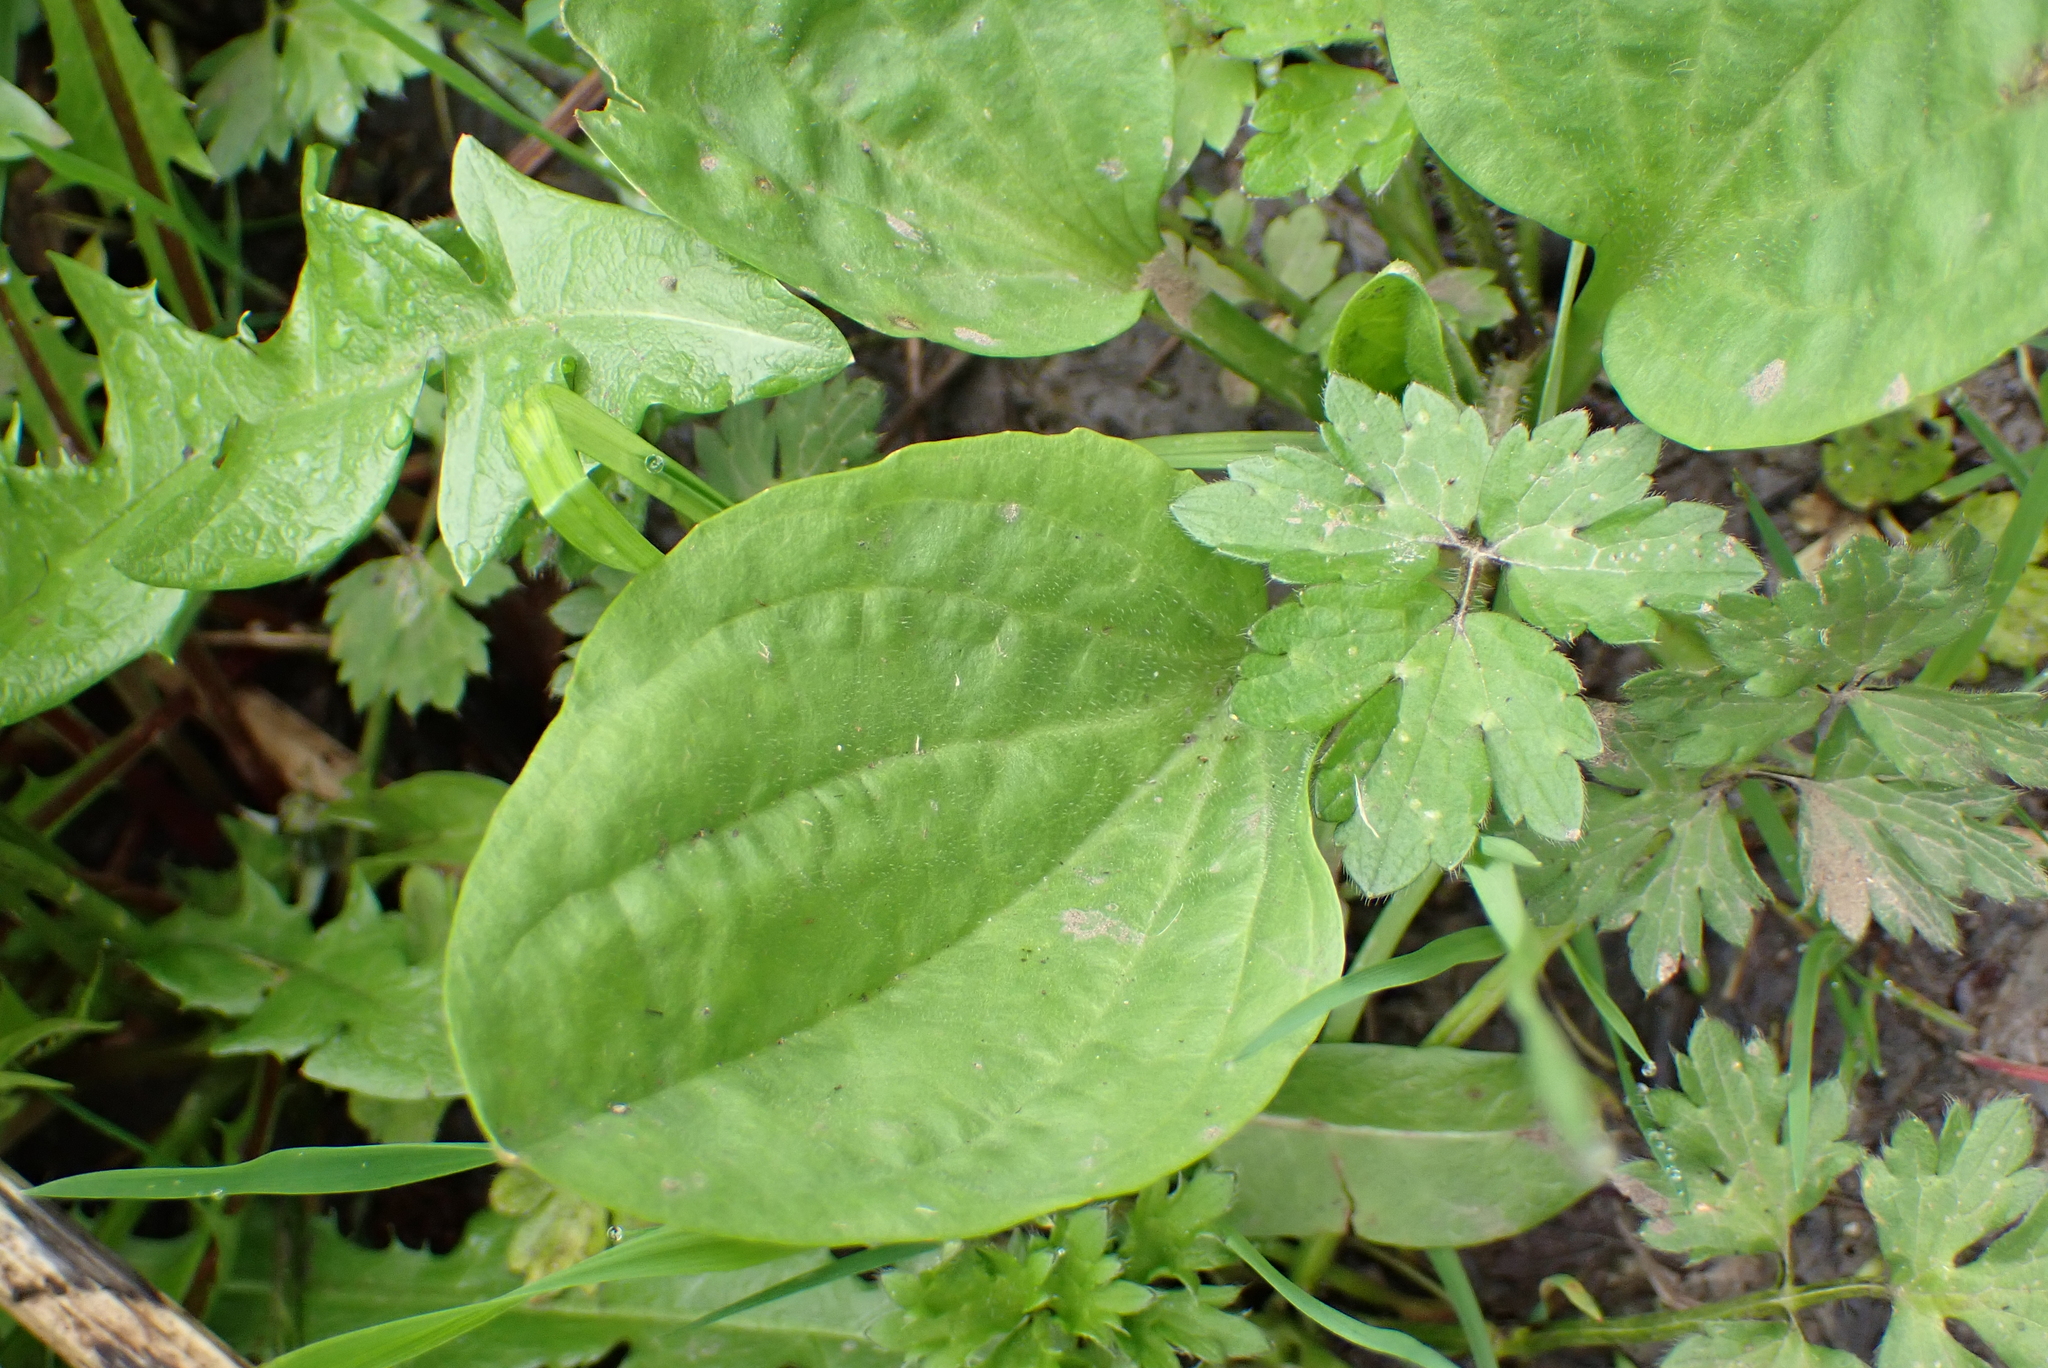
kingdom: Plantae
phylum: Tracheophyta
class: Magnoliopsida
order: Lamiales
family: Plantaginaceae
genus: Plantago
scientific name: Plantago major
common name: Common plantain
